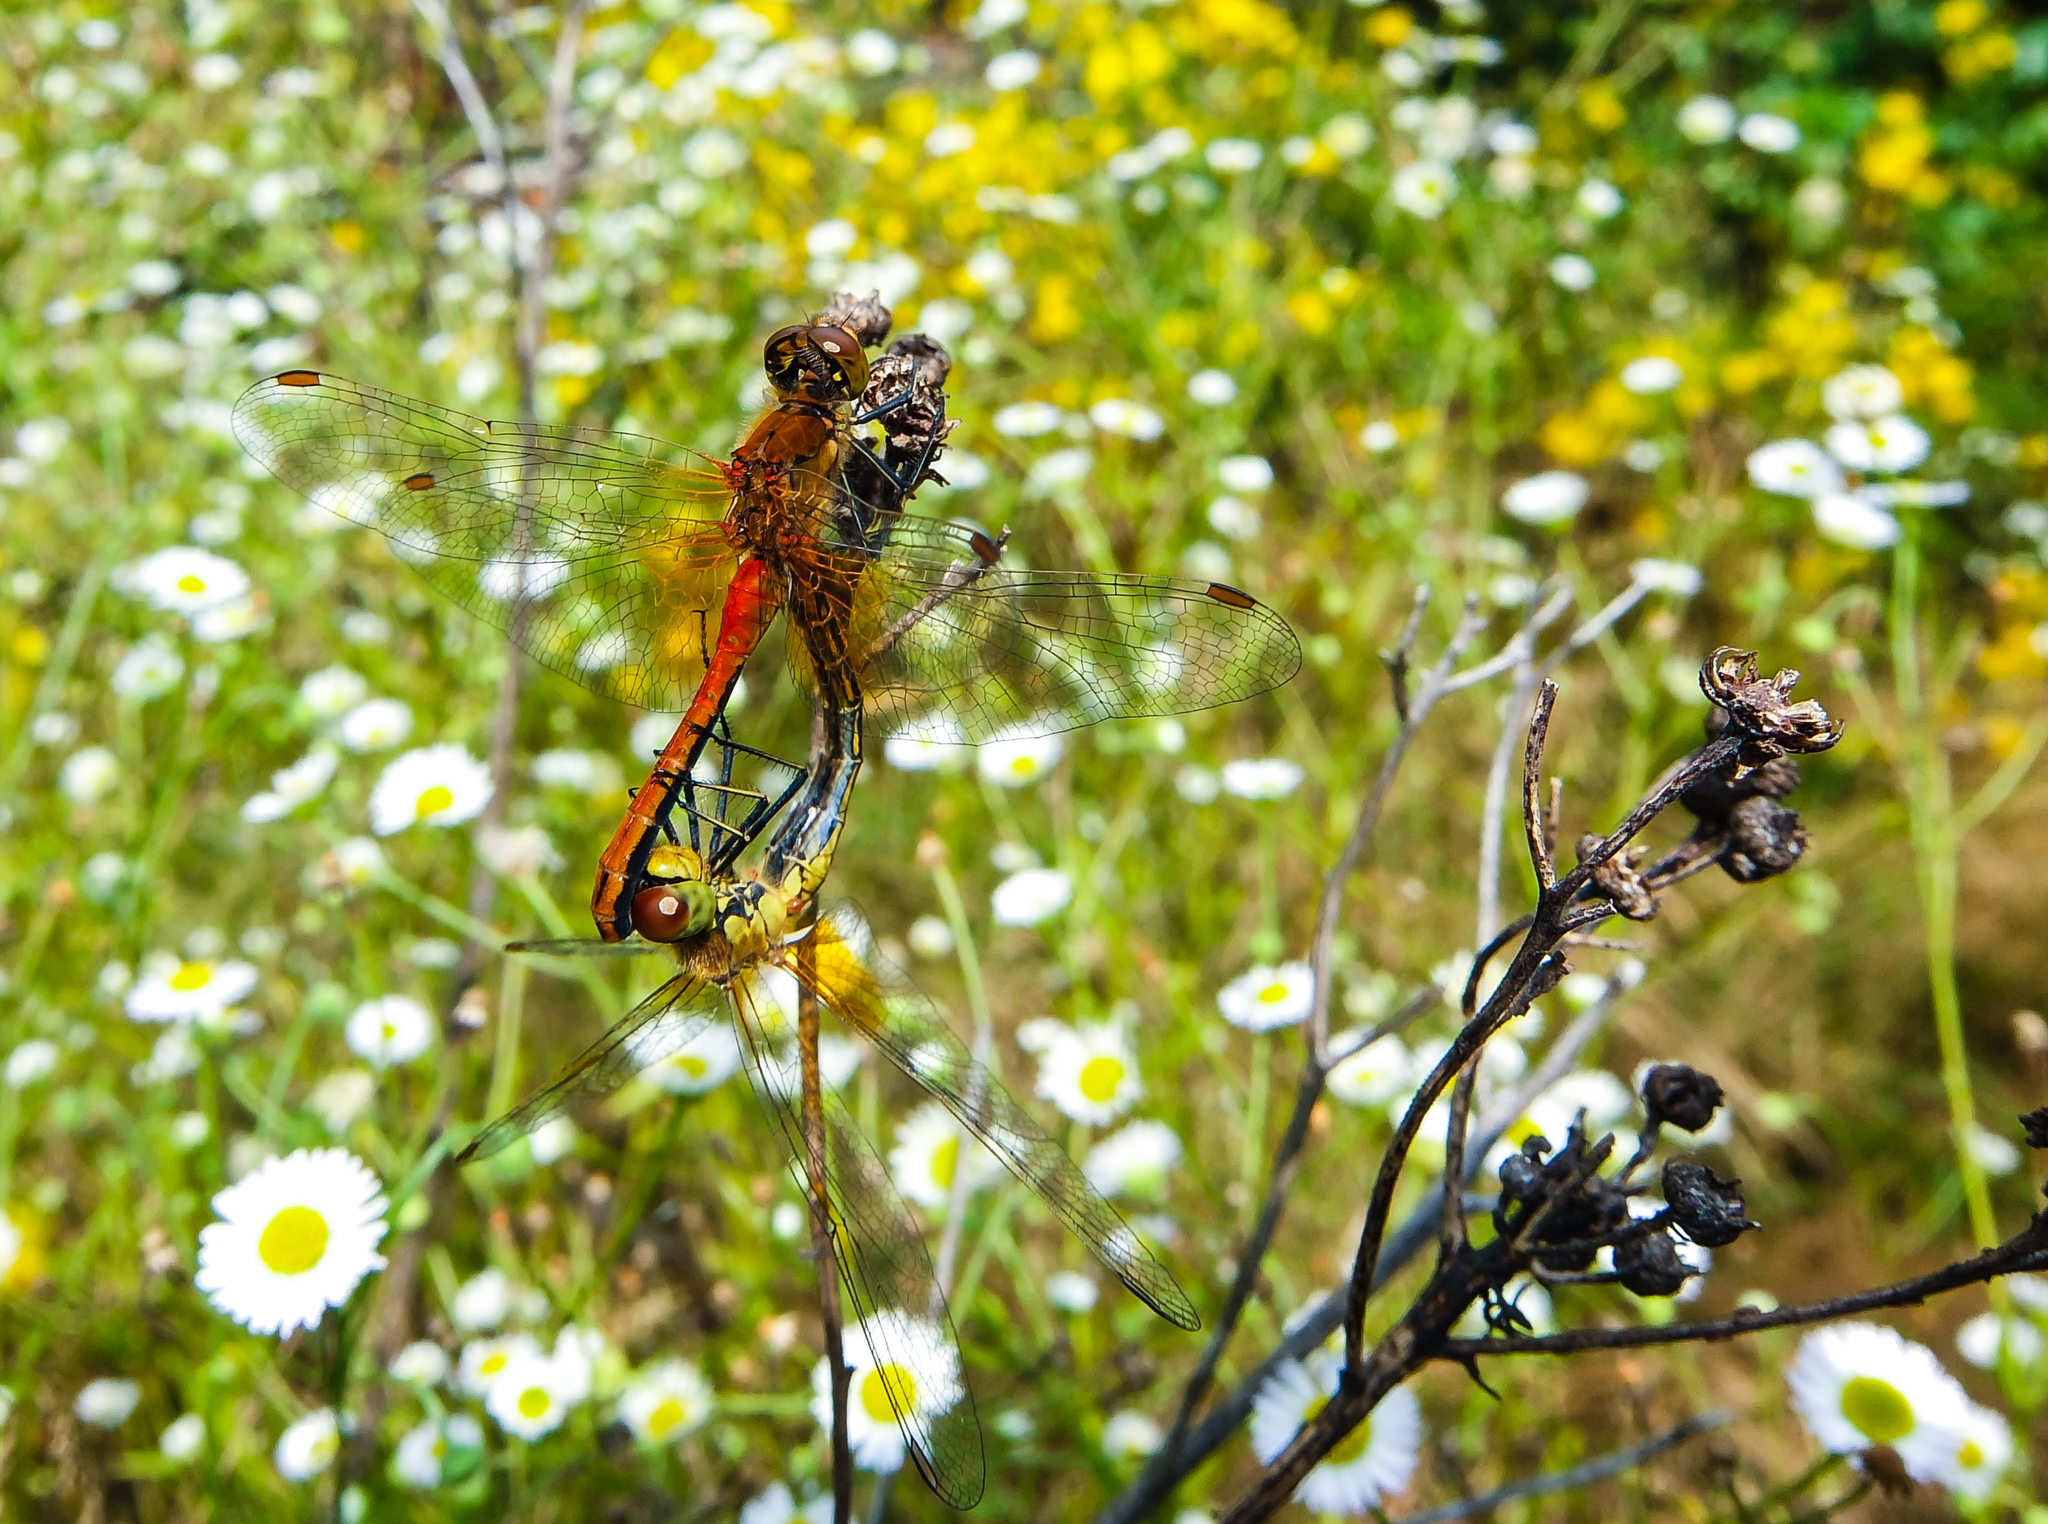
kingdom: Animalia
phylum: Arthropoda
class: Insecta
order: Odonata
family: Libellulidae
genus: Sympetrum
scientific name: Sympetrum flaveolum
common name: Yellow-winged darter
